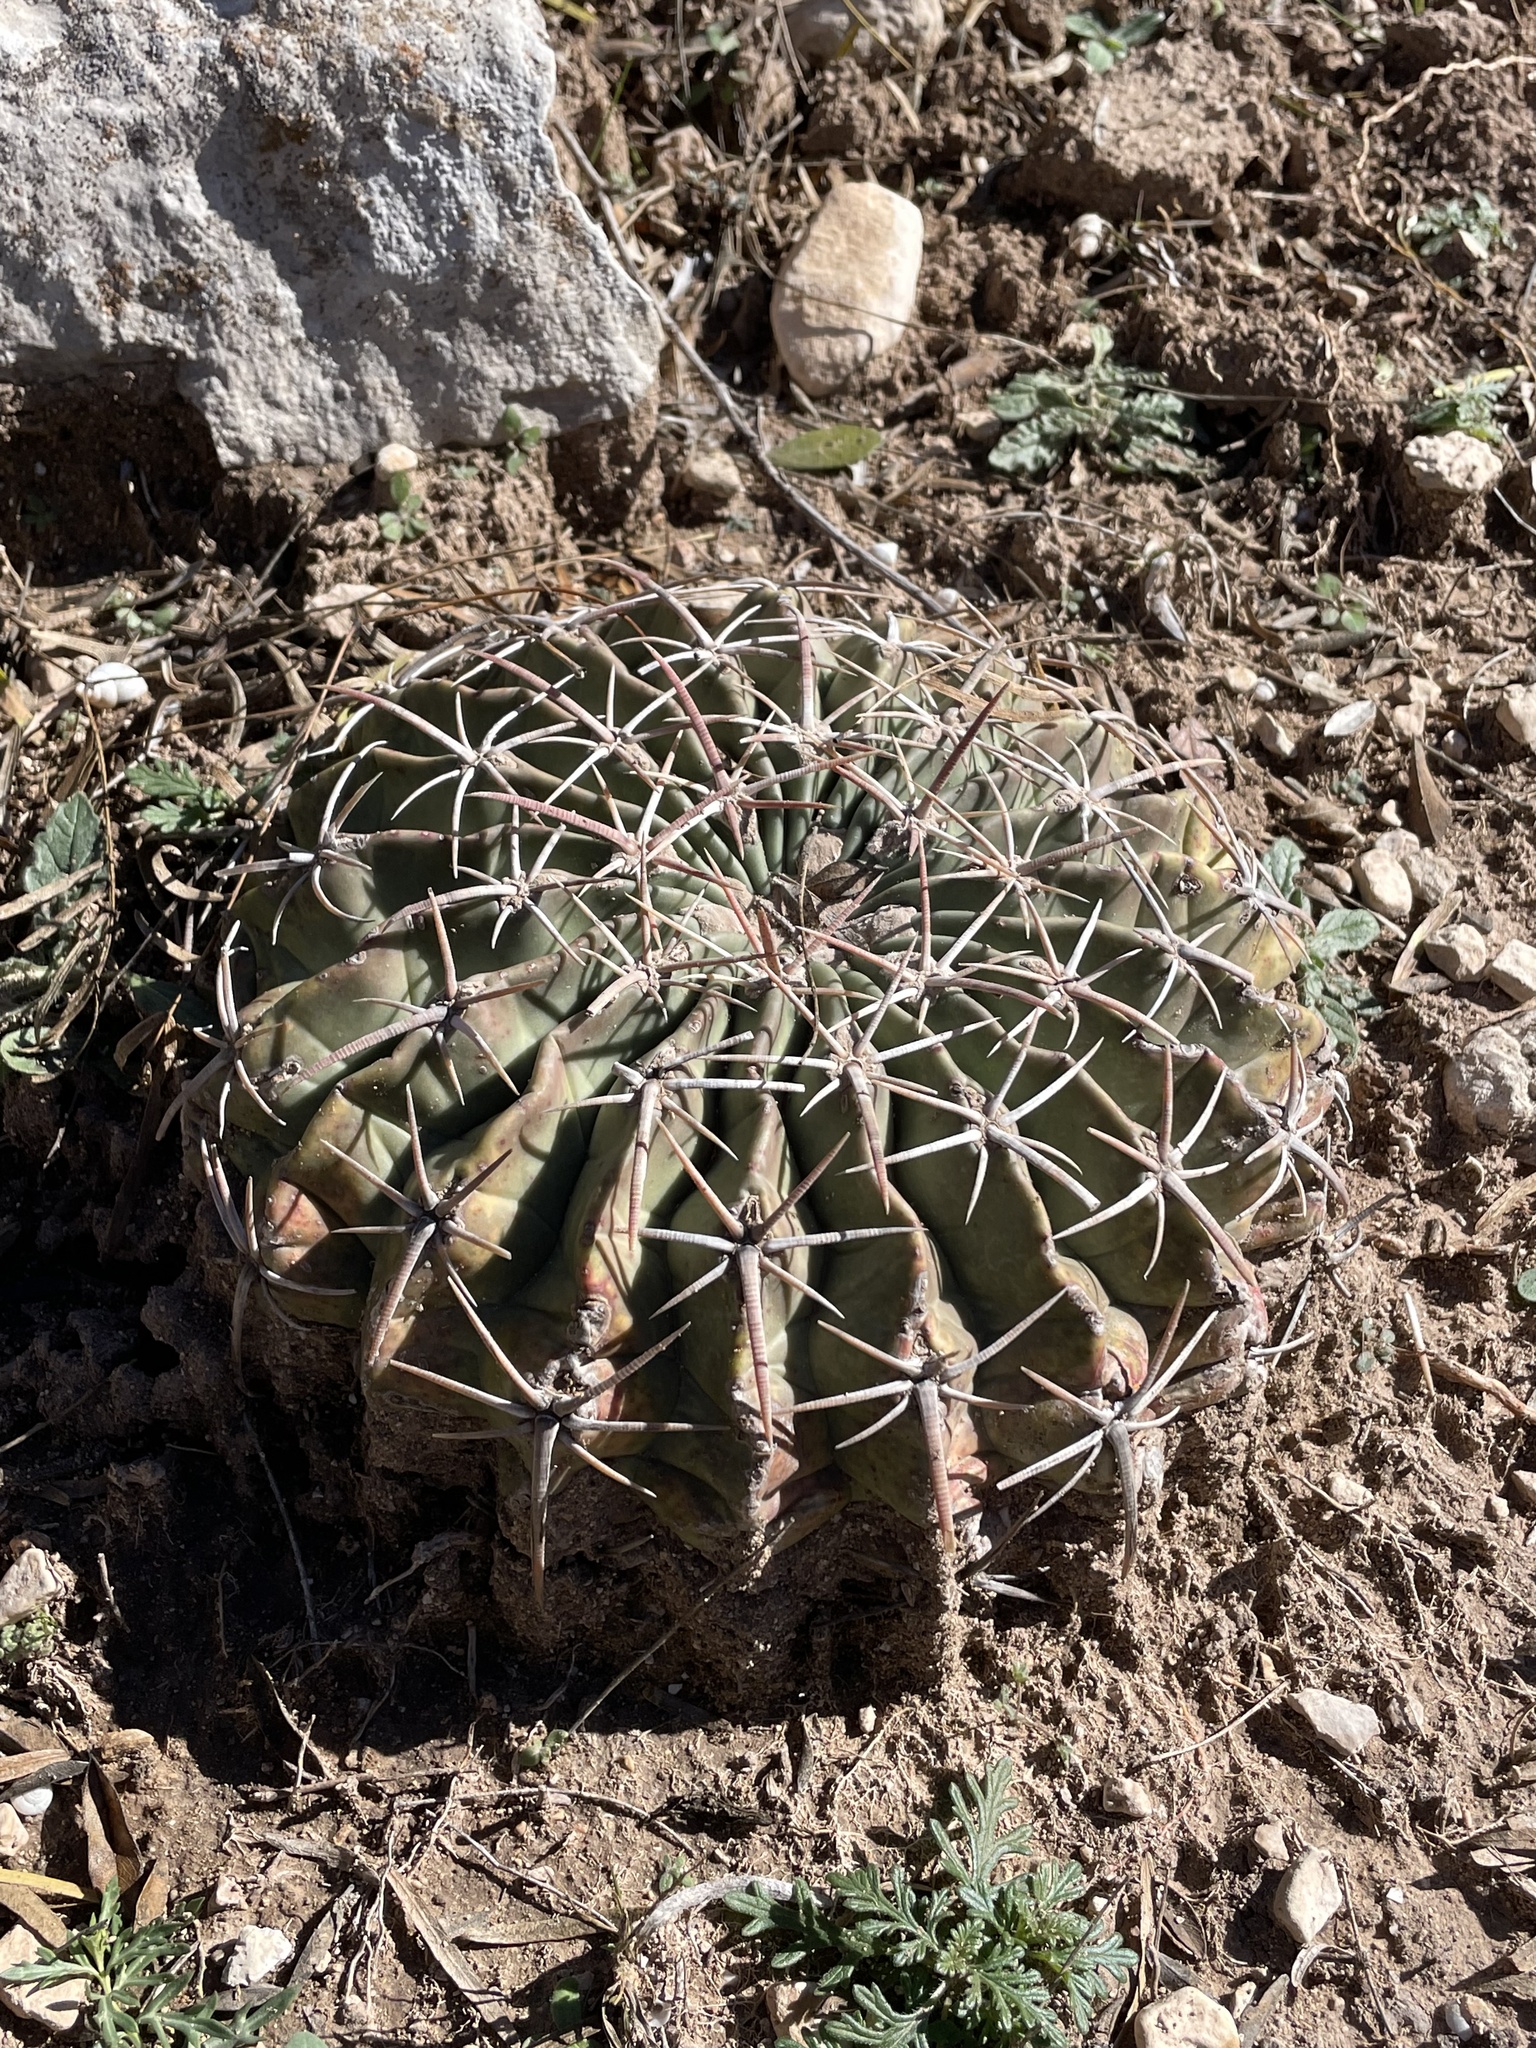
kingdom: Plantae
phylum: Tracheophyta
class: Magnoliopsida
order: Caryophyllales
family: Cactaceae
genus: Echinocactus
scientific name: Echinocactus texensis
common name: Devil's pincushion
